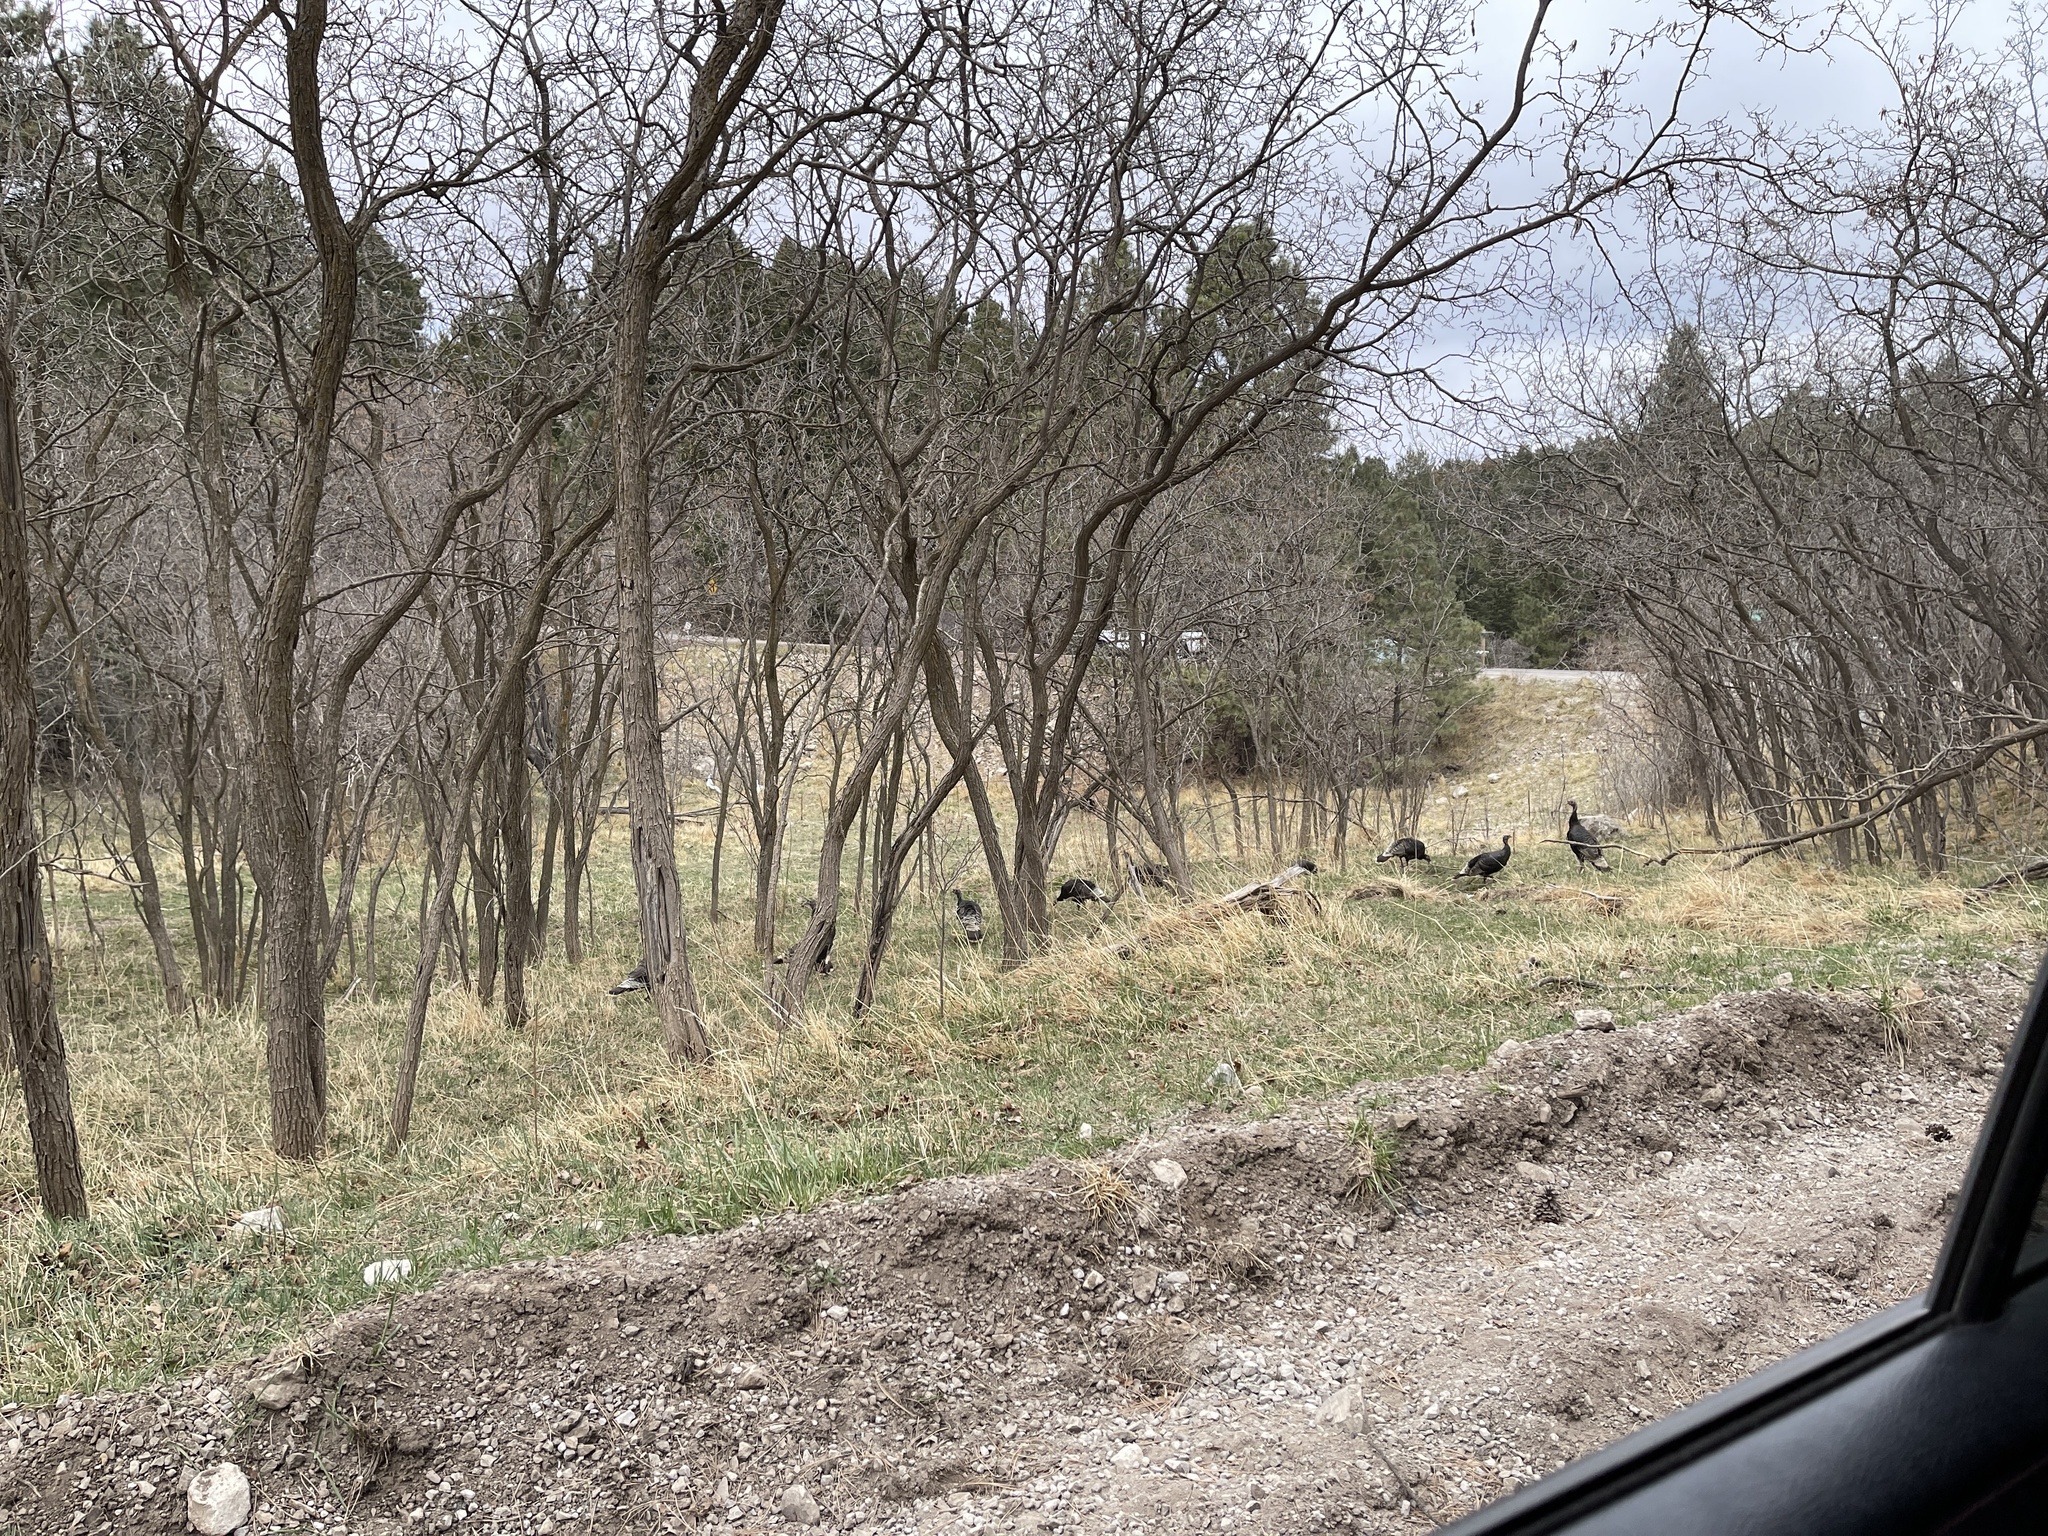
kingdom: Animalia
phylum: Chordata
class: Aves
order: Galliformes
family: Phasianidae
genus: Meleagris
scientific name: Meleagris gallopavo
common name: Wild turkey
